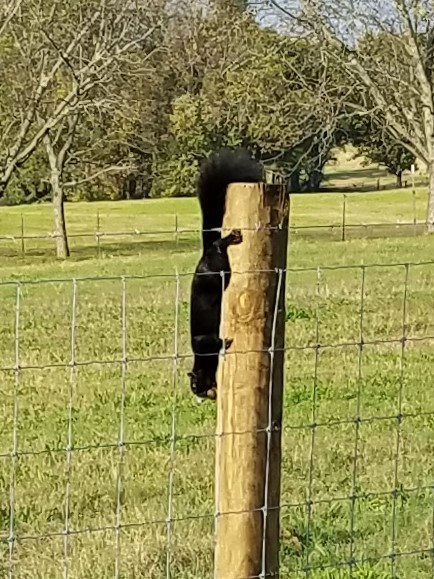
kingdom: Animalia
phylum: Chordata
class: Mammalia
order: Rodentia
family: Sciuridae
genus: Sciurus
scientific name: Sciurus niger
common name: Fox squirrel
